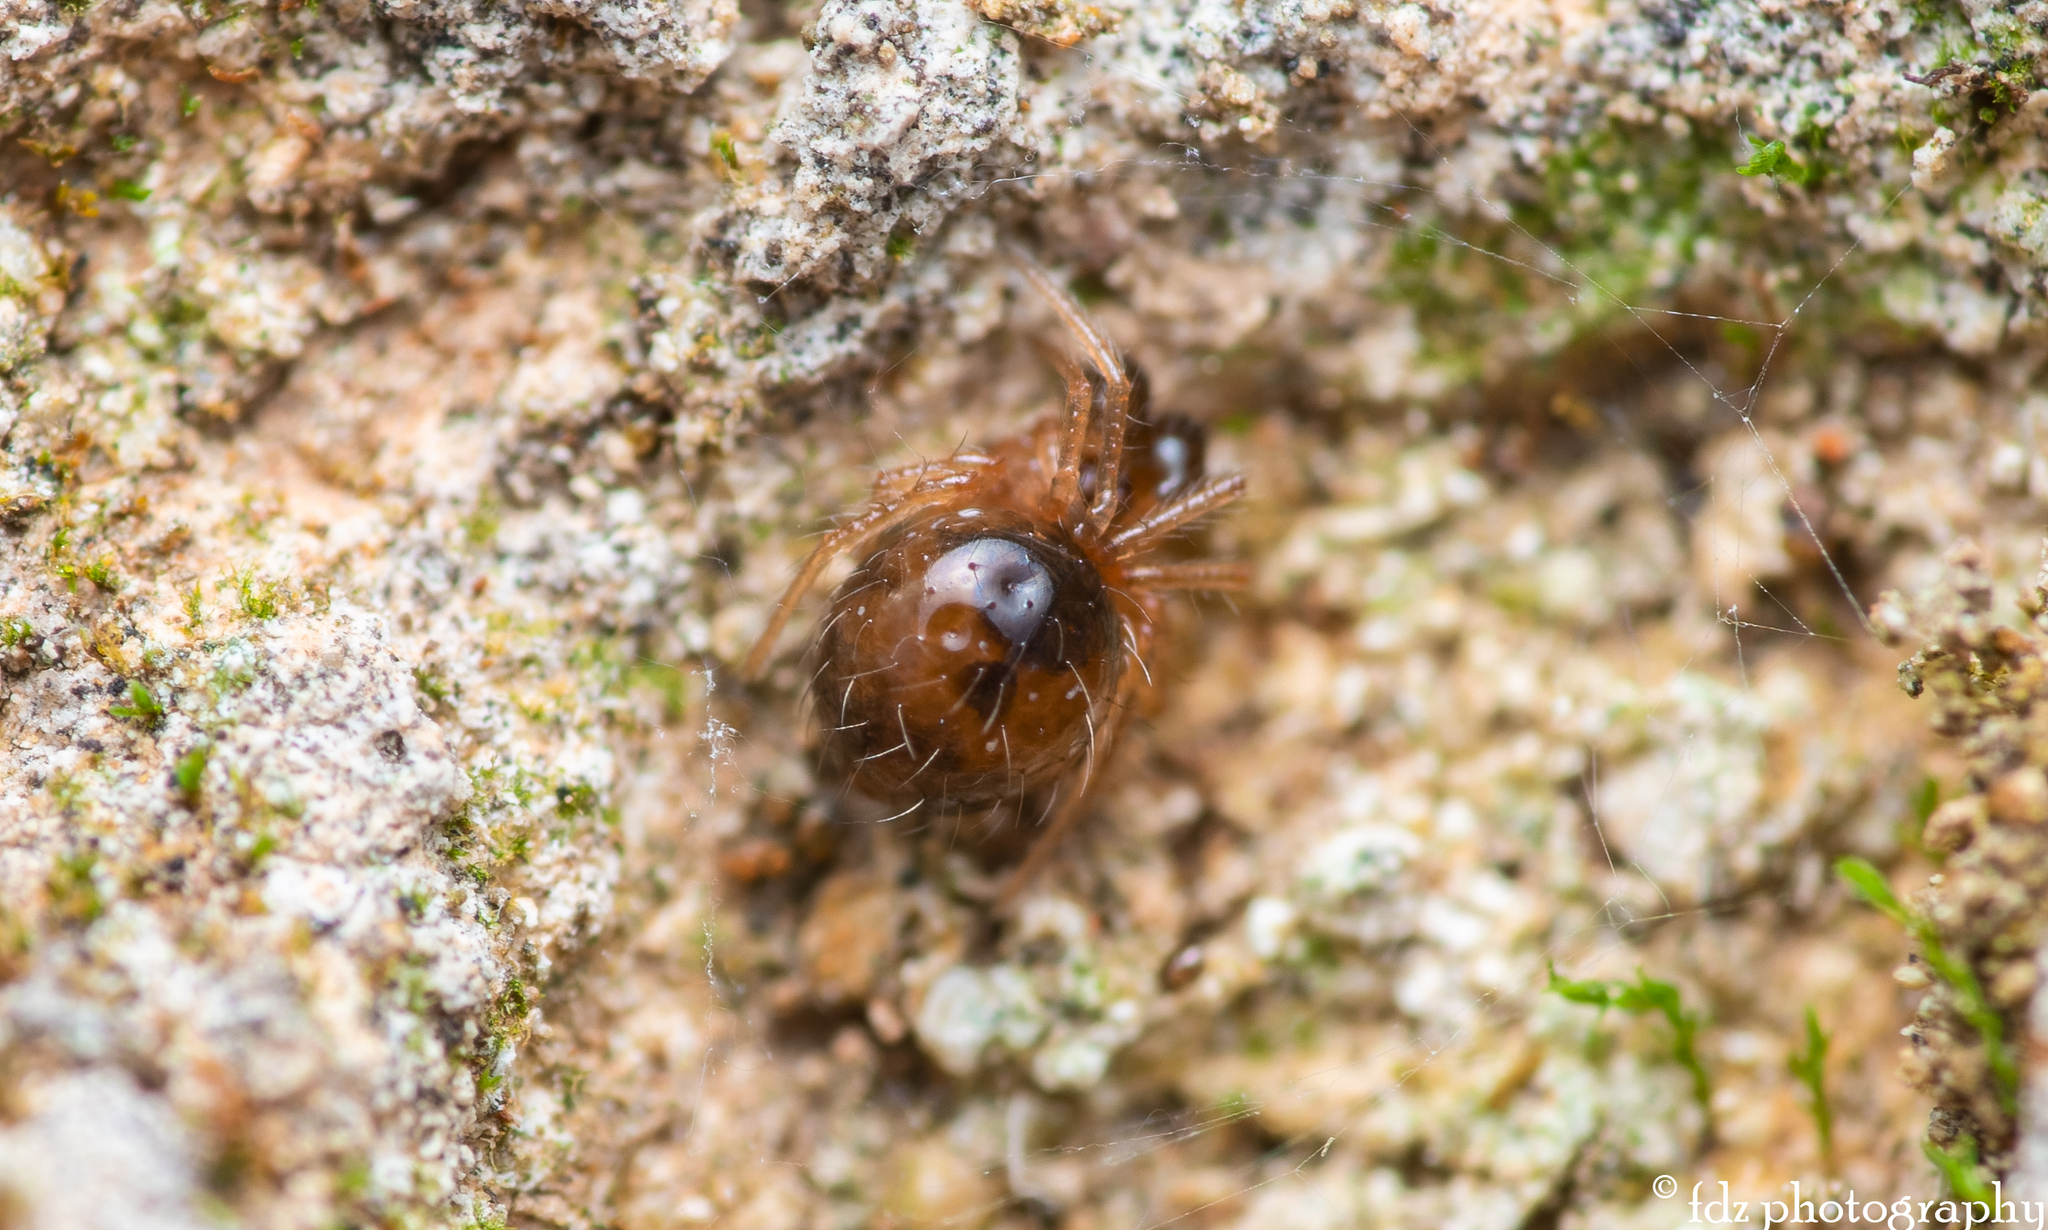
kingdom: Animalia
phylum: Arthropoda
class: Arachnida
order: Araneae
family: Theridiidae
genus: Anatolidion
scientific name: Anatolidion gentile
